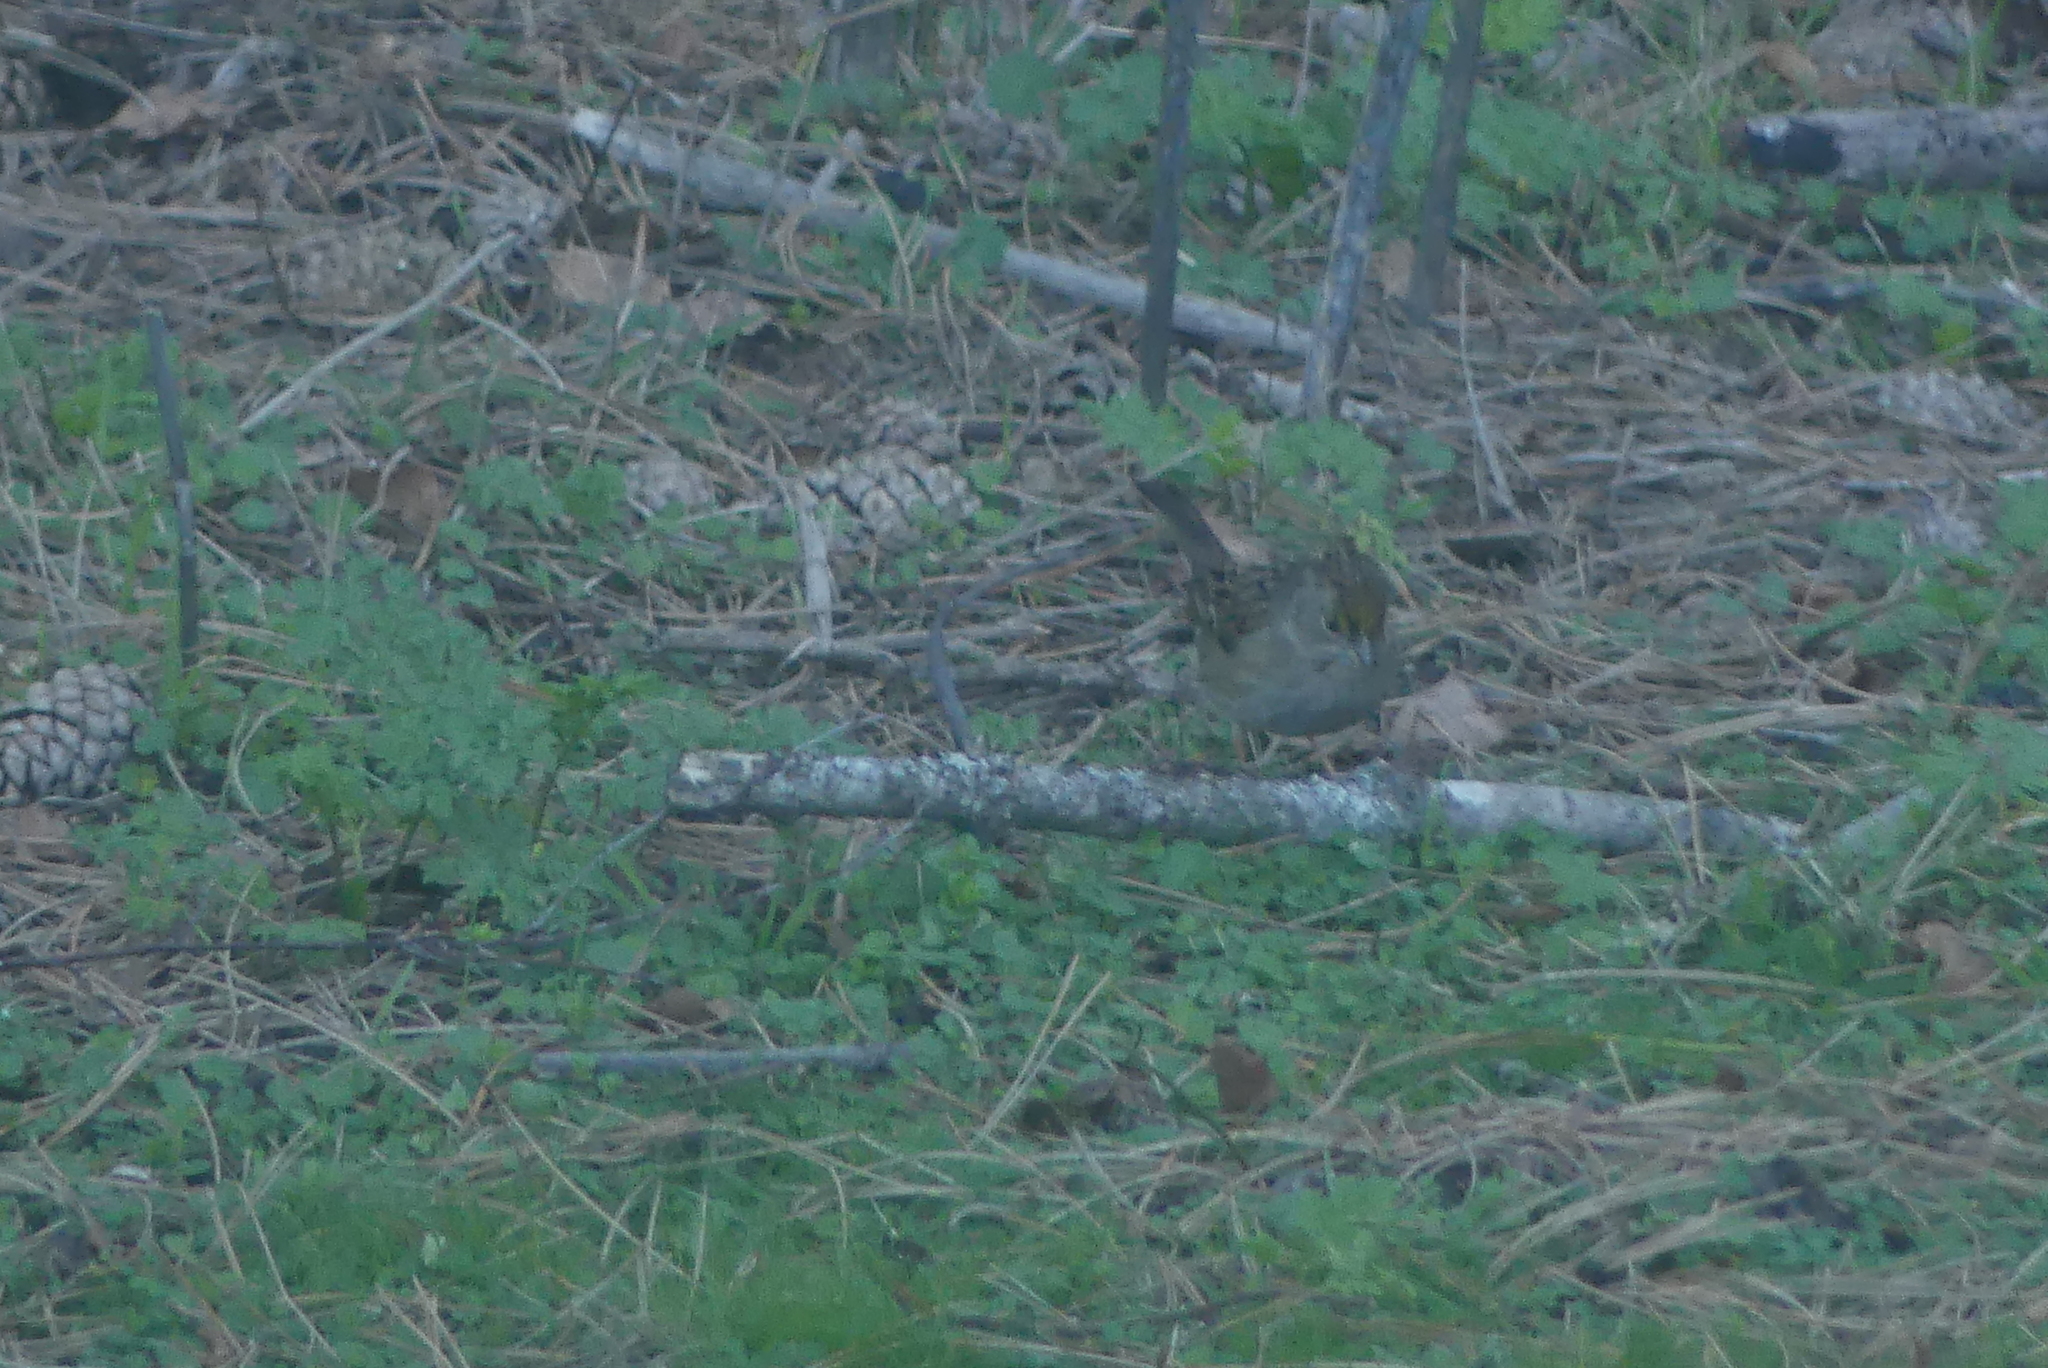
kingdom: Animalia
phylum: Chordata
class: Aves
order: Passeriformes
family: Passerellidae
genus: Zonotrichia
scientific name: Zonotrichia atricapilla
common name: Golden-crowned sparrow
